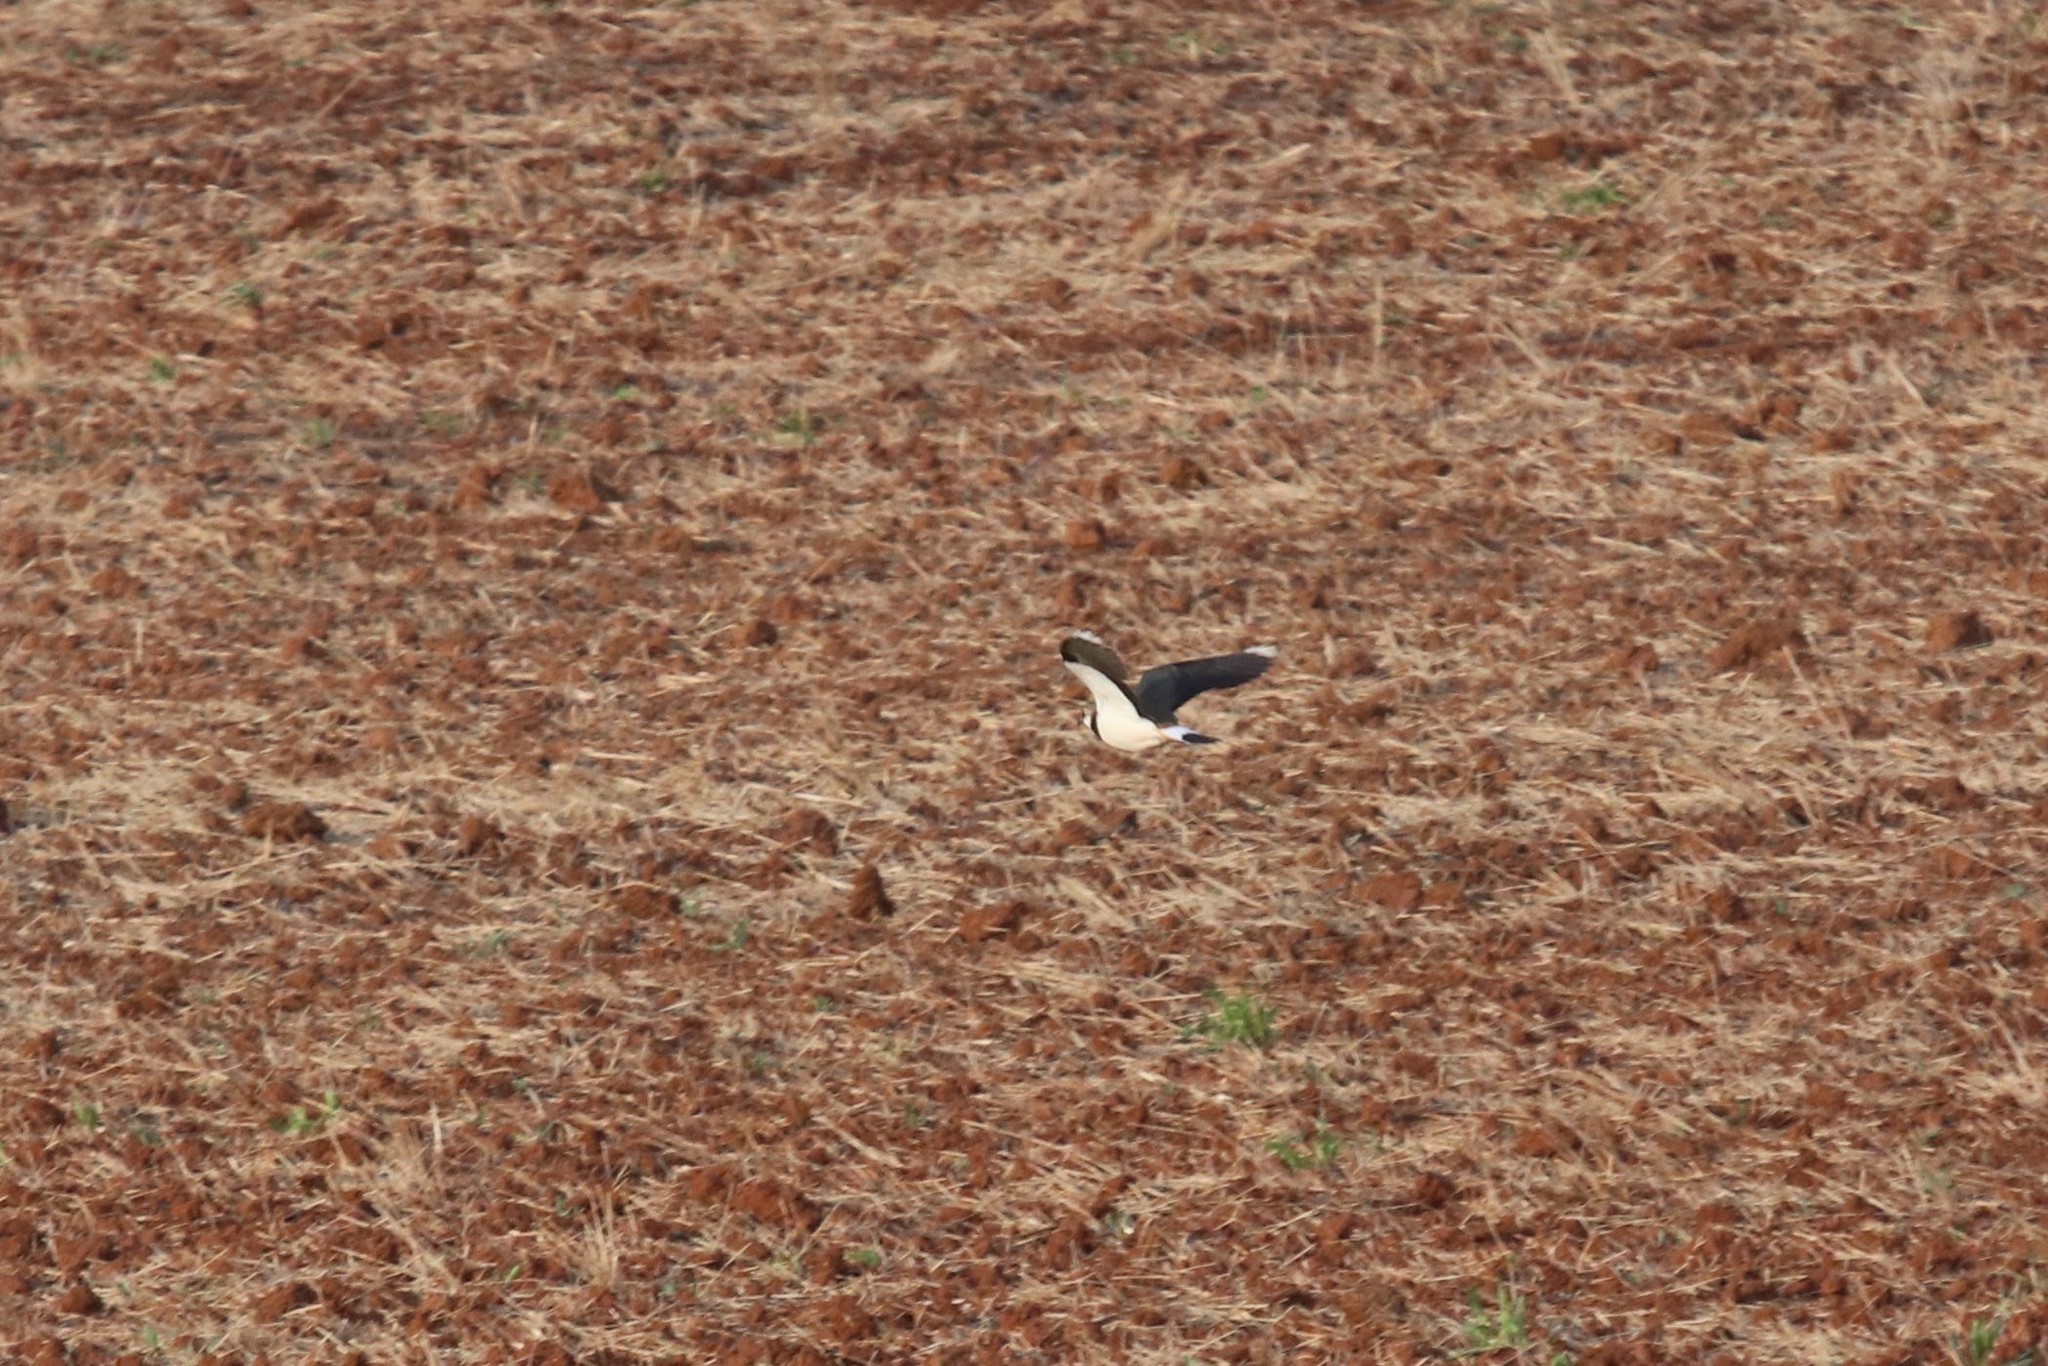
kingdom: Animalia
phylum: Chordata
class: Aves
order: Charadriiformes
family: Charadriidae
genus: Vanellus
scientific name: Vanellus vanellus
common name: Northern lapwing
